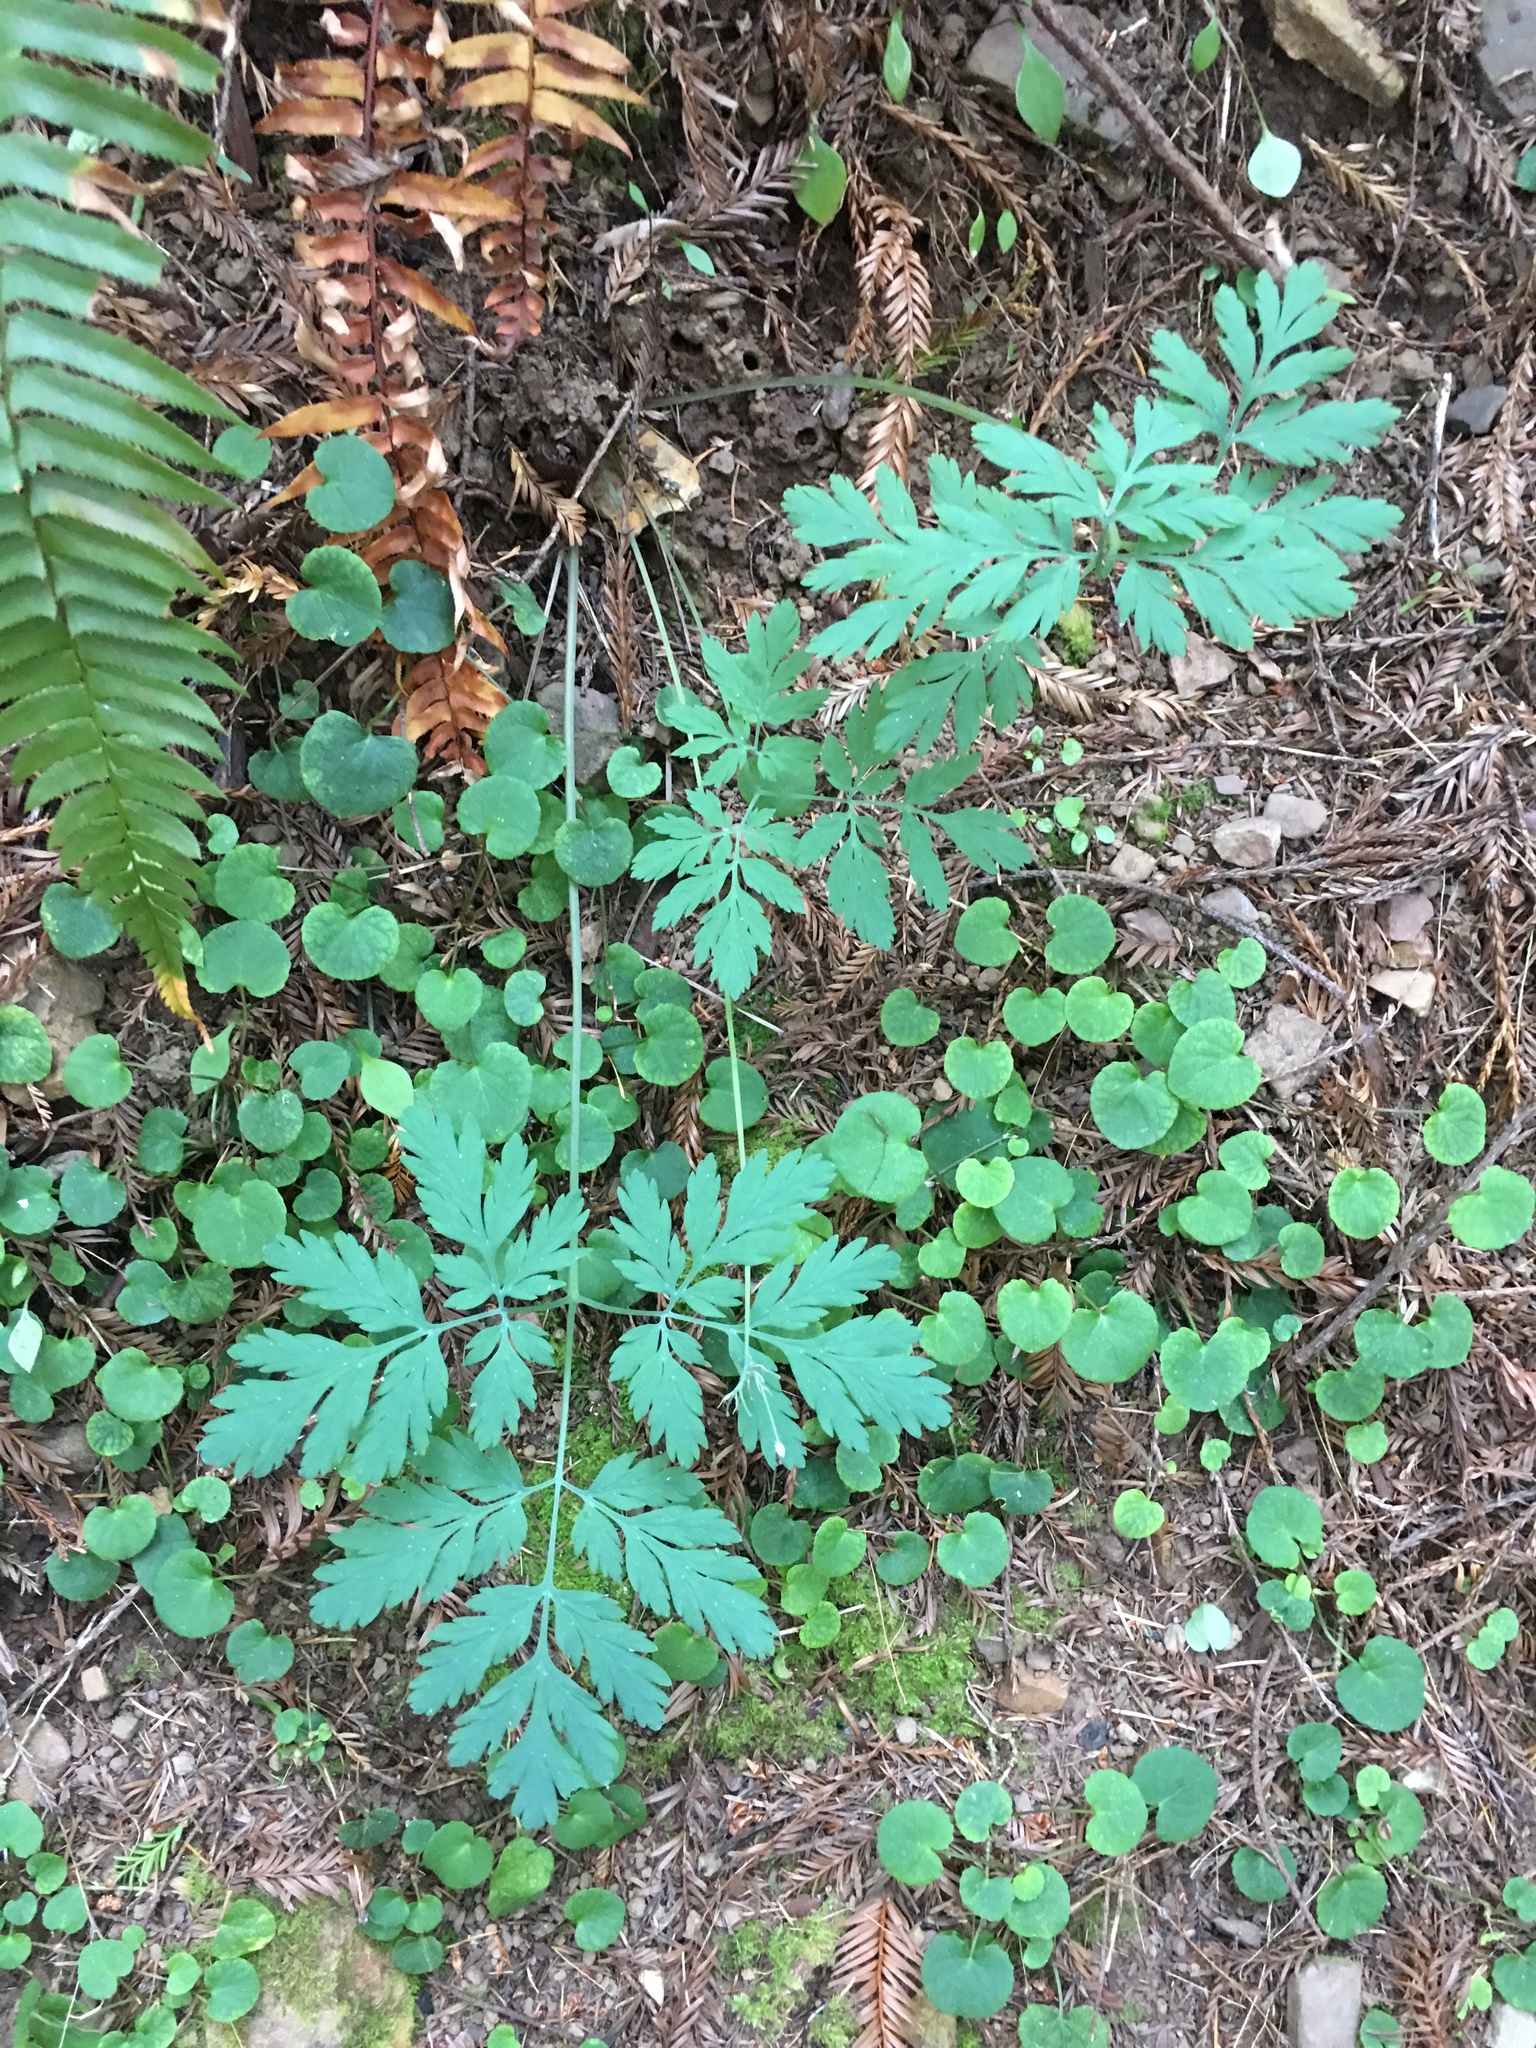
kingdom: Plantae
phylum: Tracheophyta
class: Magnoliopsida
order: Ranunculales
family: Papaveraceae
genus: Dicentra
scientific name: Dicentra formosa
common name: Bleeding-heart
